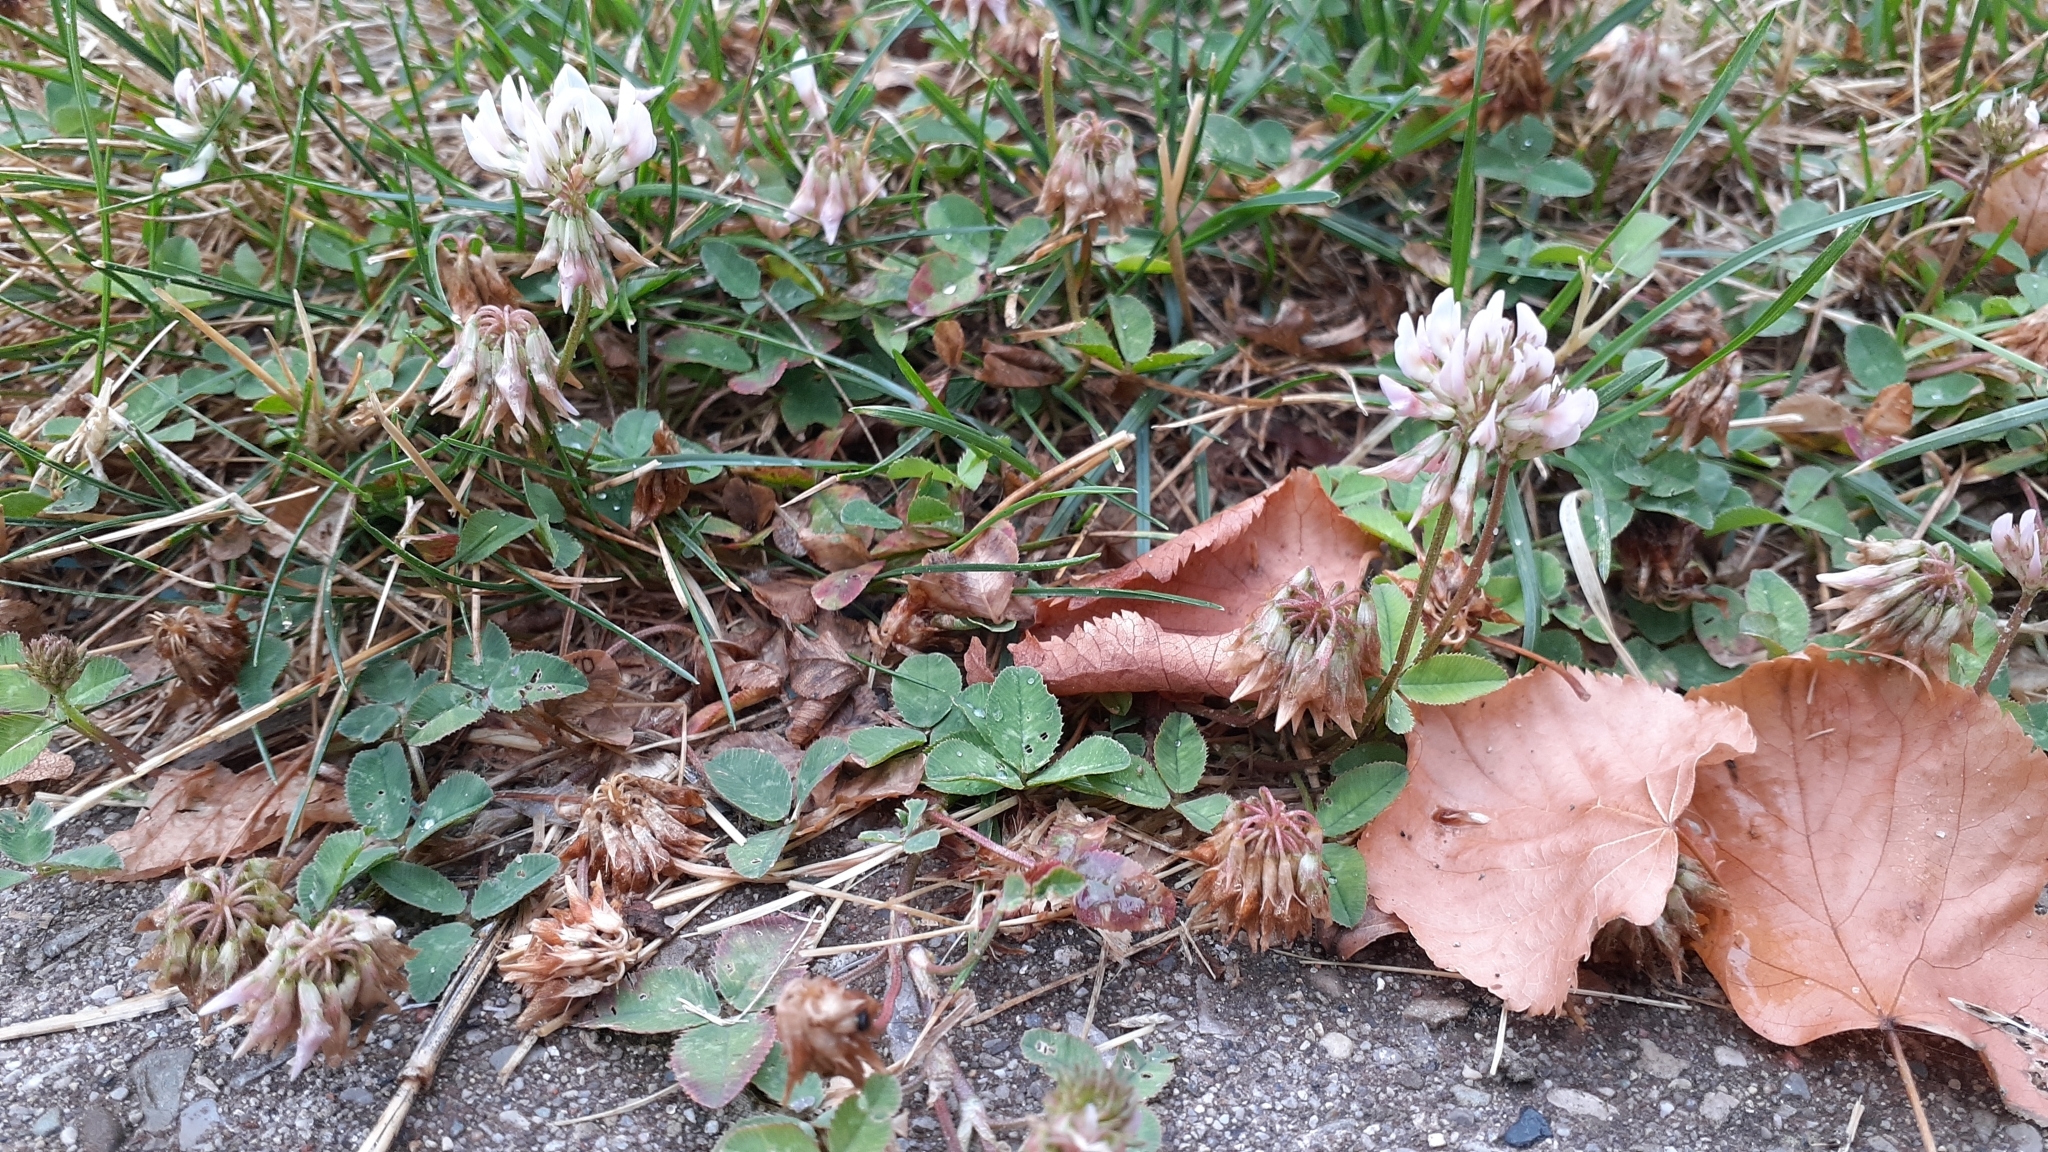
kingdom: Plantae
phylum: Tracheophyta
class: Magnoliopsida
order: Fabales
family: Fabaceae
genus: Trifolium
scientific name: Trifolium repens
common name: White clover
